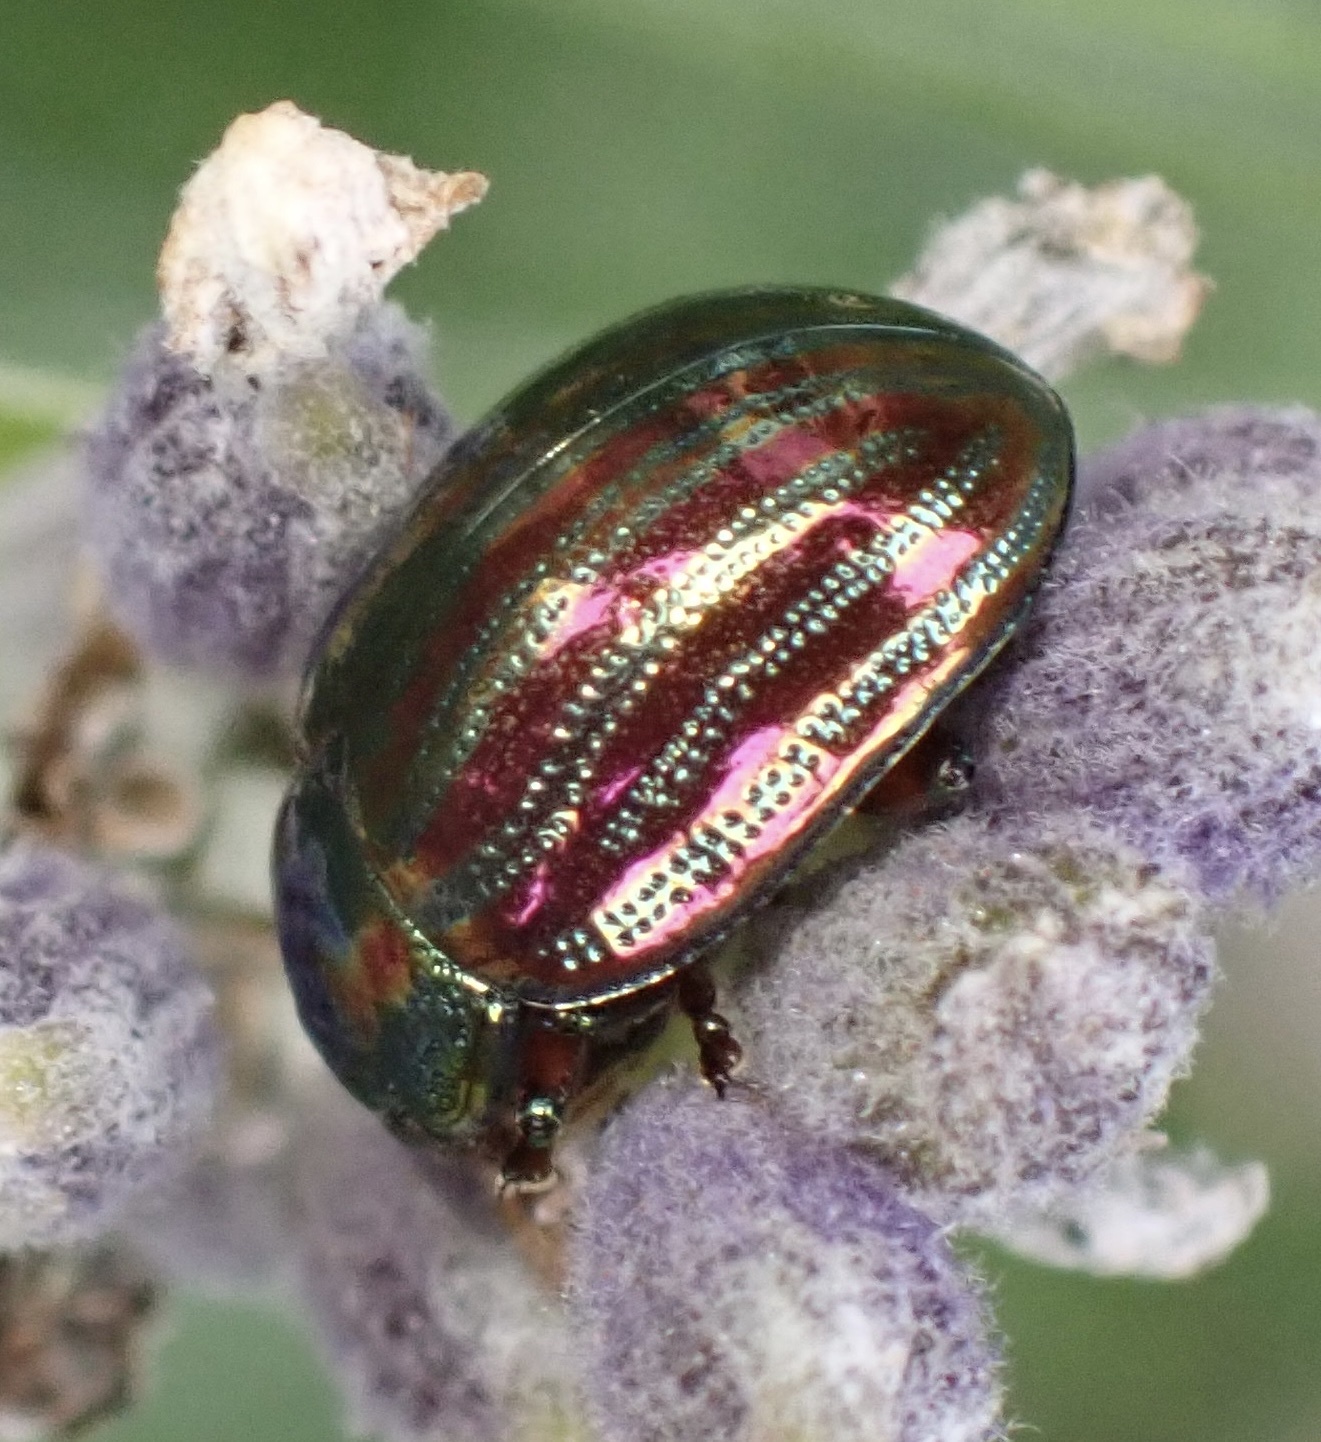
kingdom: Animalia
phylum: Arthropoda
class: Insecta
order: Coleoptera
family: Chrysomelidae
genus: Chrysolina
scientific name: Chrysolina americana
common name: Rosemary beetle
